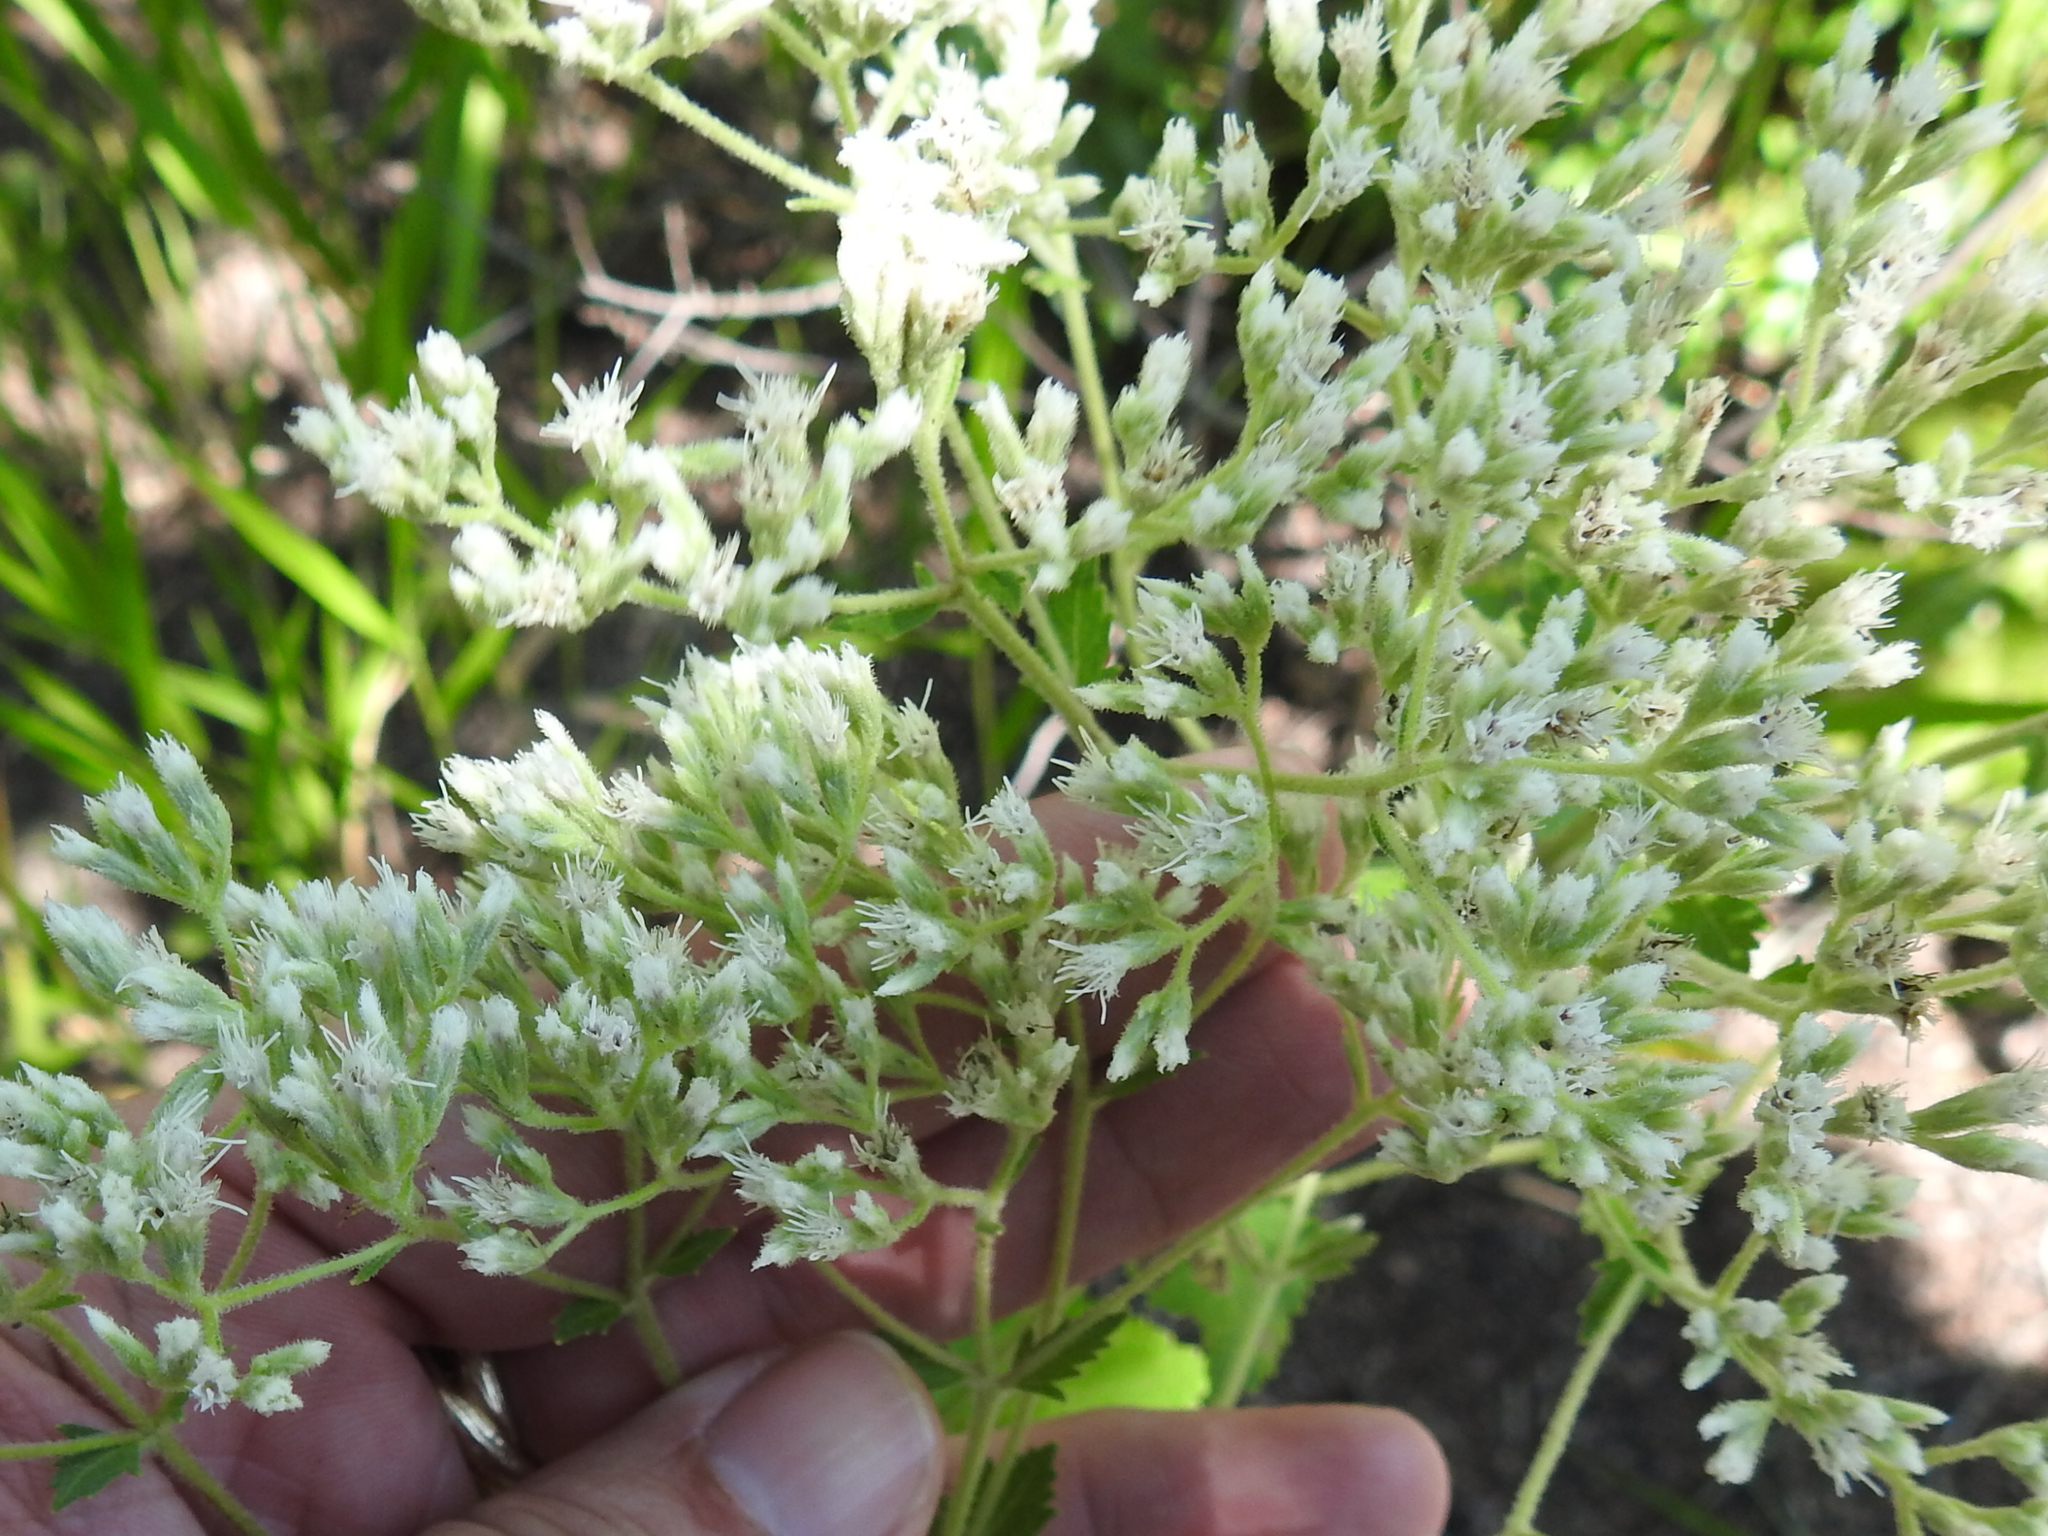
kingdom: Plantae
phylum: Tracheophyta
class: Magnoliopsida
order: Asterales
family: Asteraceae
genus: Eupatorium
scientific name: Eupatorium rotundifolium
